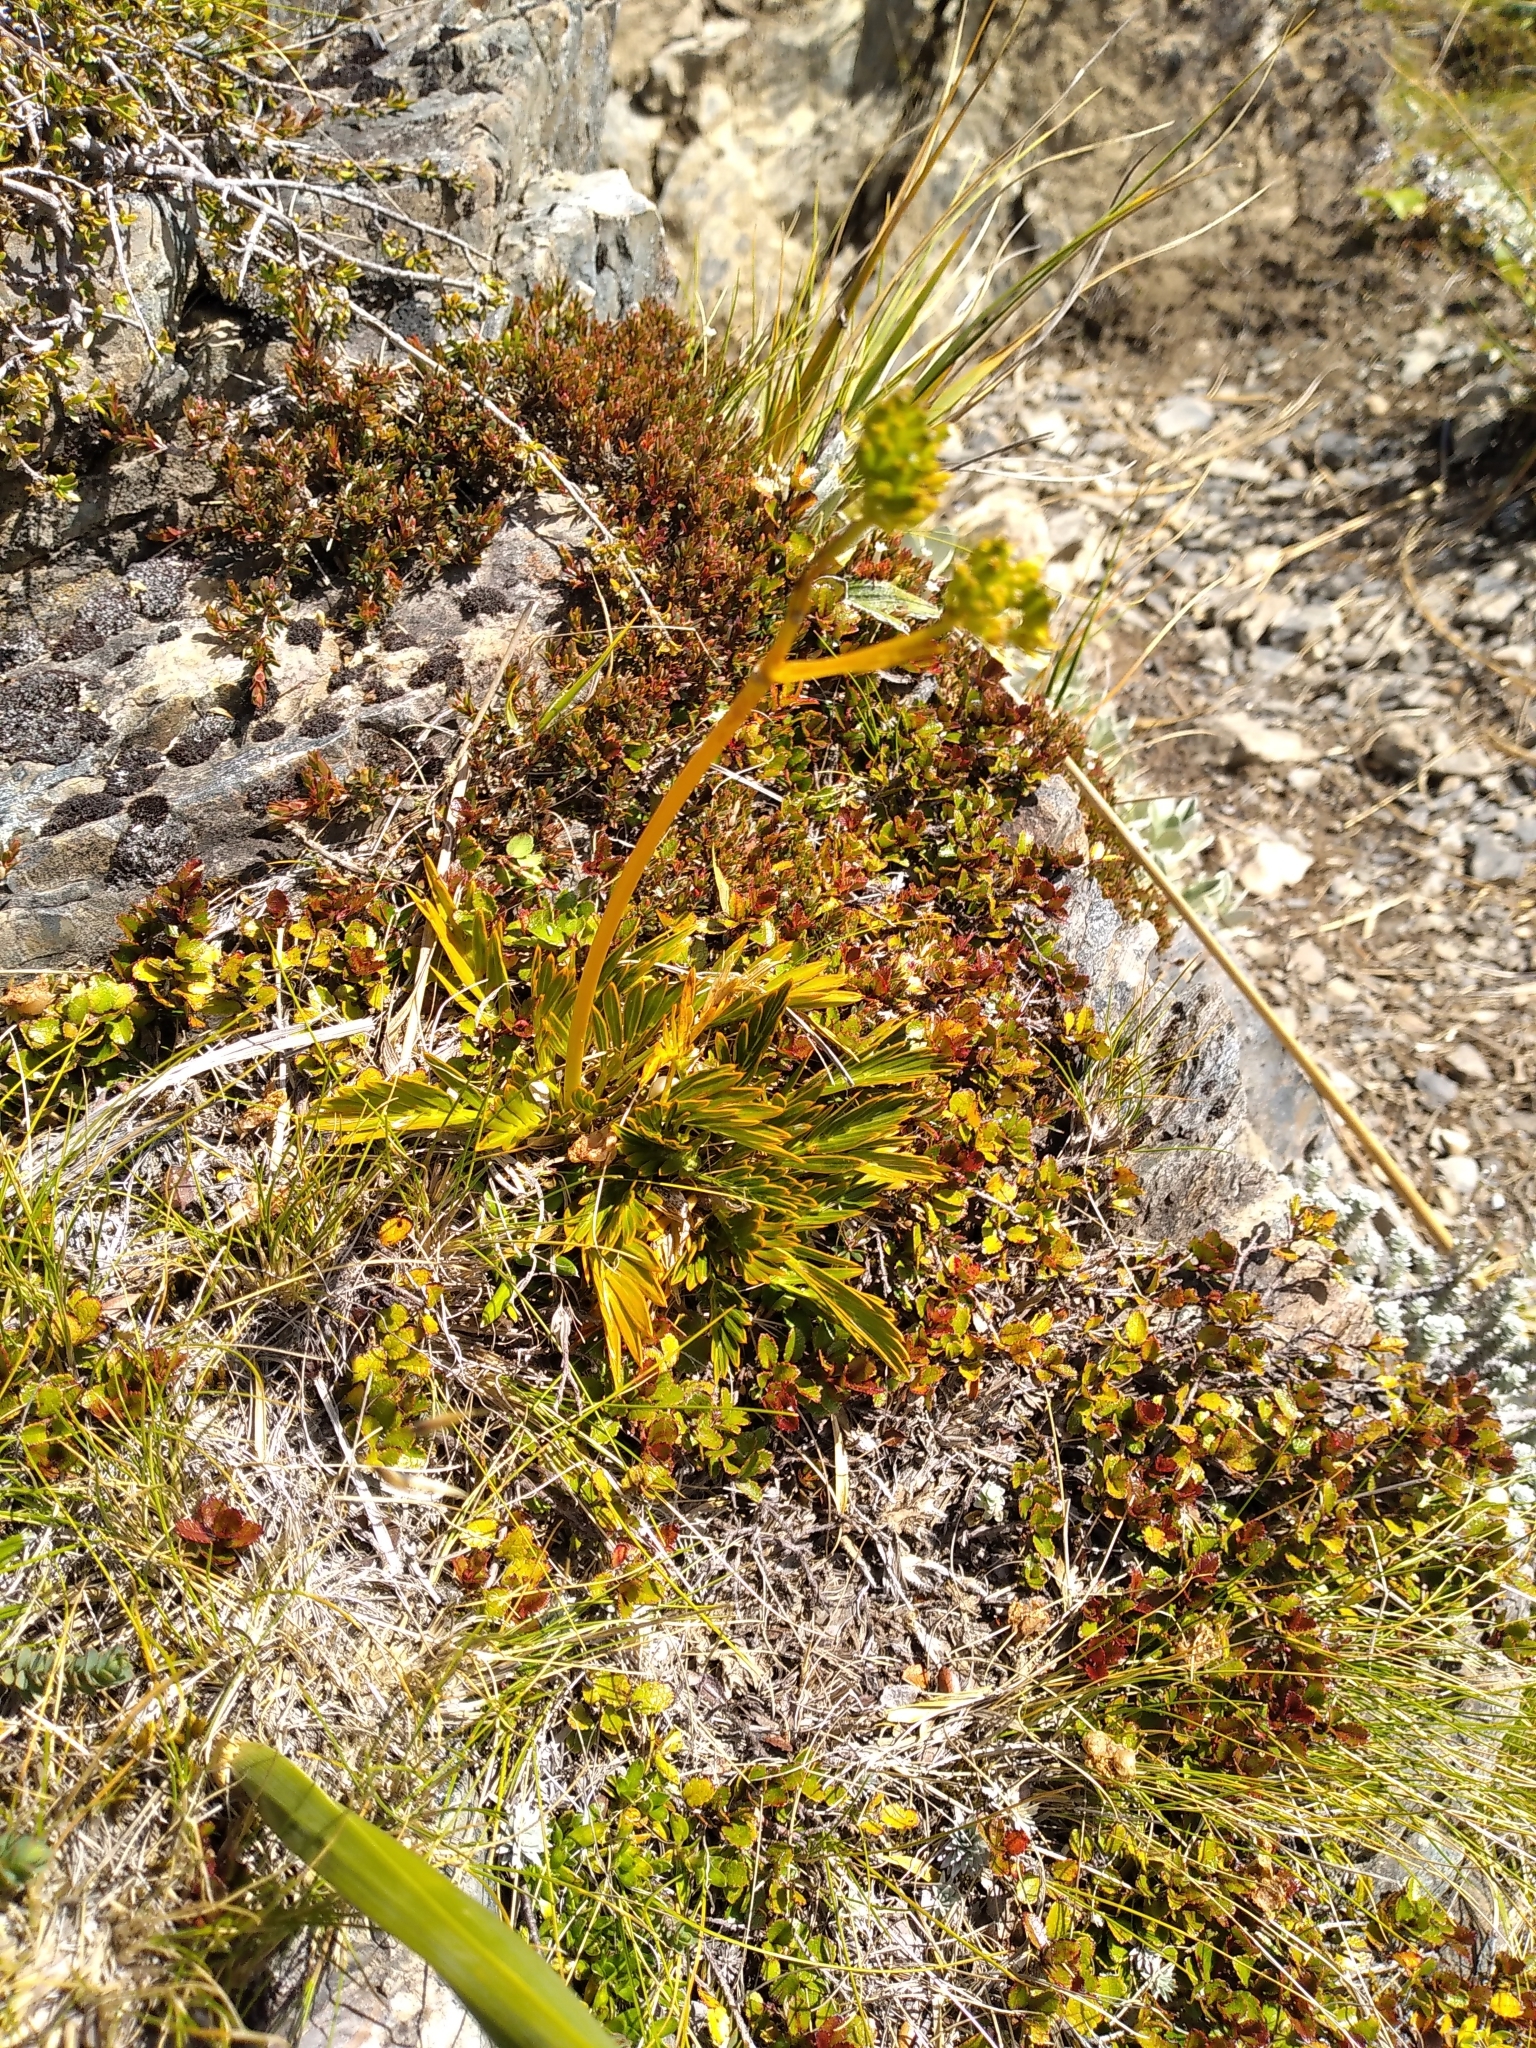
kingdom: Plantae
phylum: Tracheophyta
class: Magnoliopsida
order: Apiales
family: Apiaceae
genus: Aciphylla
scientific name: Aciphylla similis
